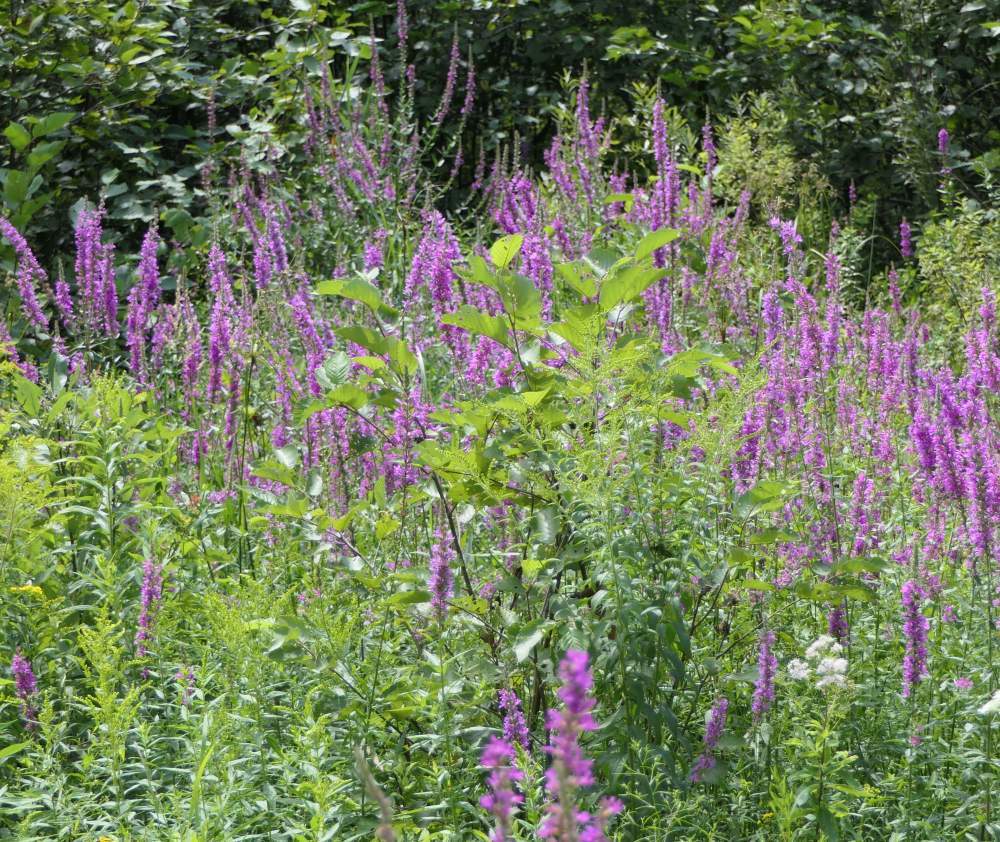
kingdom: Plantae
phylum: Tracheophyta
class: Magnoliopsida
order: Myrtales
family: Lythraceae
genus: Lythrum
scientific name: Lythrum salicaria
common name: Purple loosestrife
